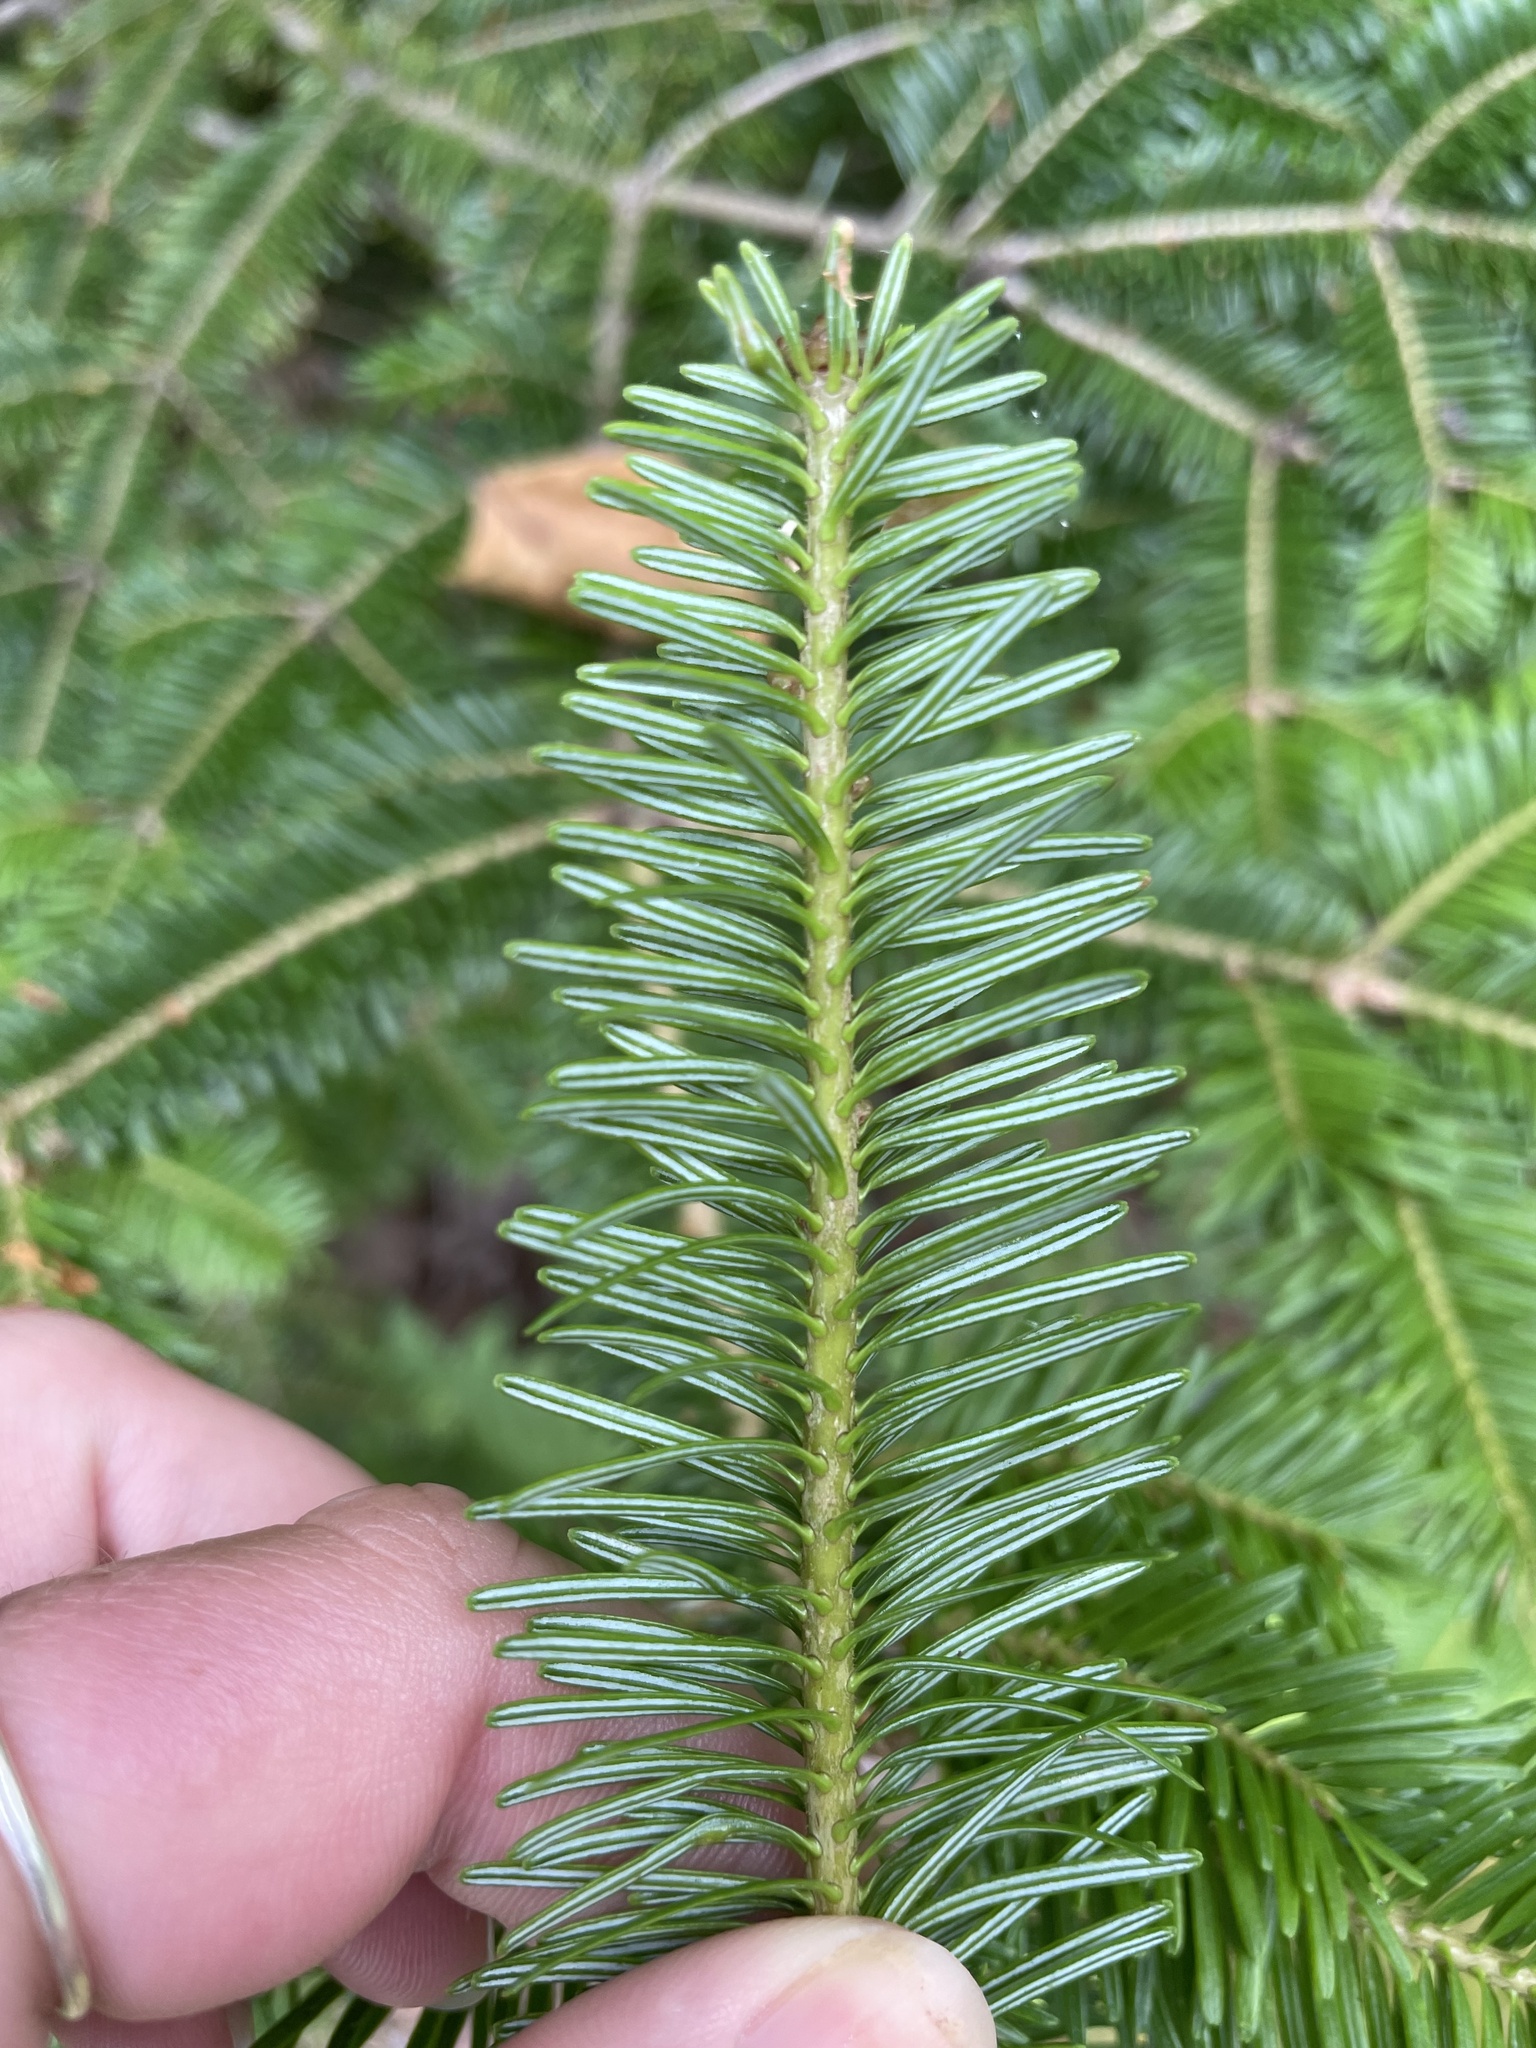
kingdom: Plantae
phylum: Tracheophyta
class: Pinopsida
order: Pinales
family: Pinaceae
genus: Abies
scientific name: Abies balsamea
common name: Balsam fir
